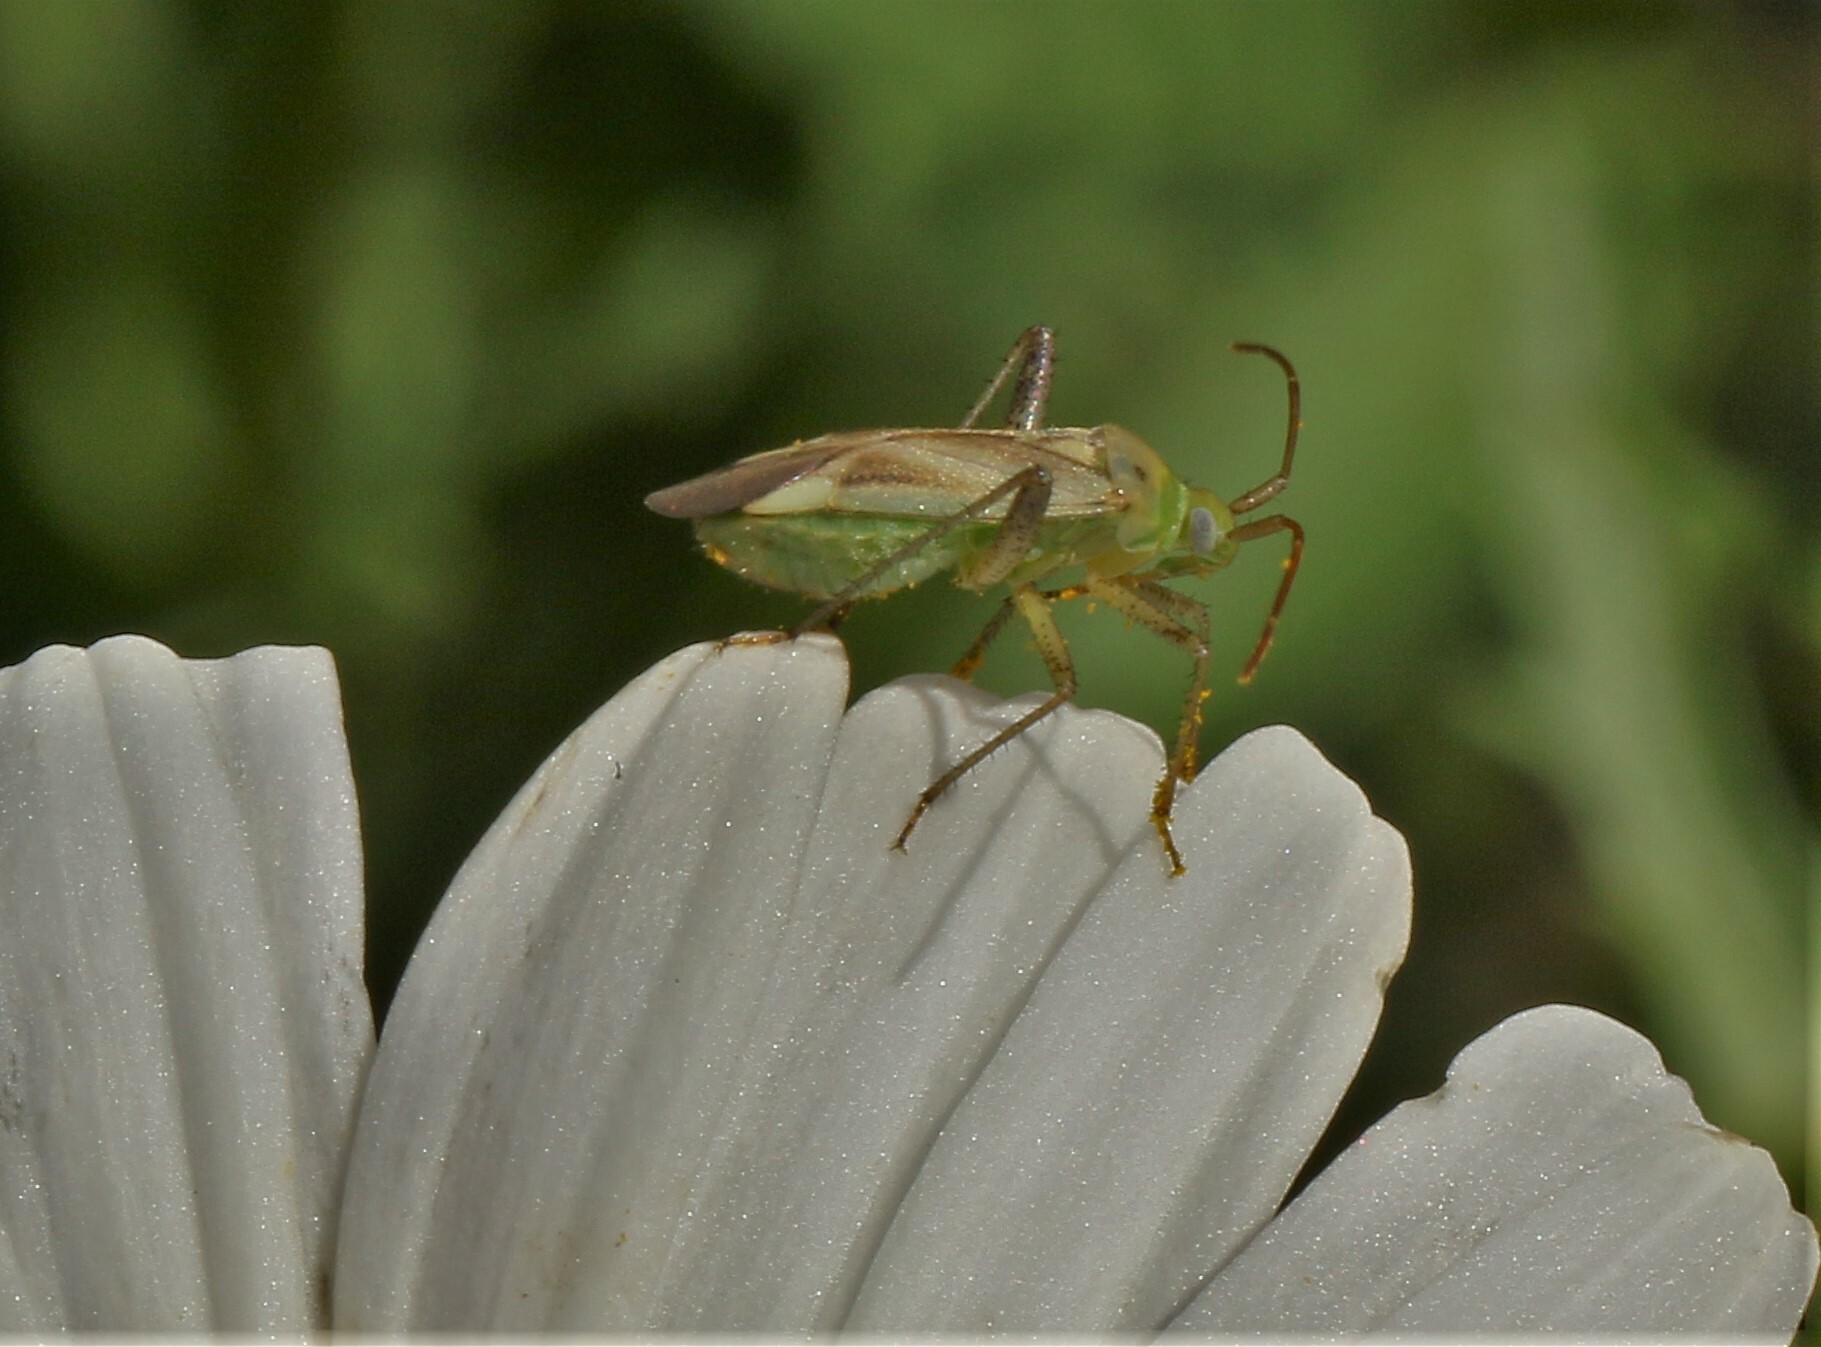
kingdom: Animalia
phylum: Arthropoda
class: Insecta
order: Hemiptera
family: Miridae
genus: Adelphocoris
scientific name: Adelphocoris lineolatus
